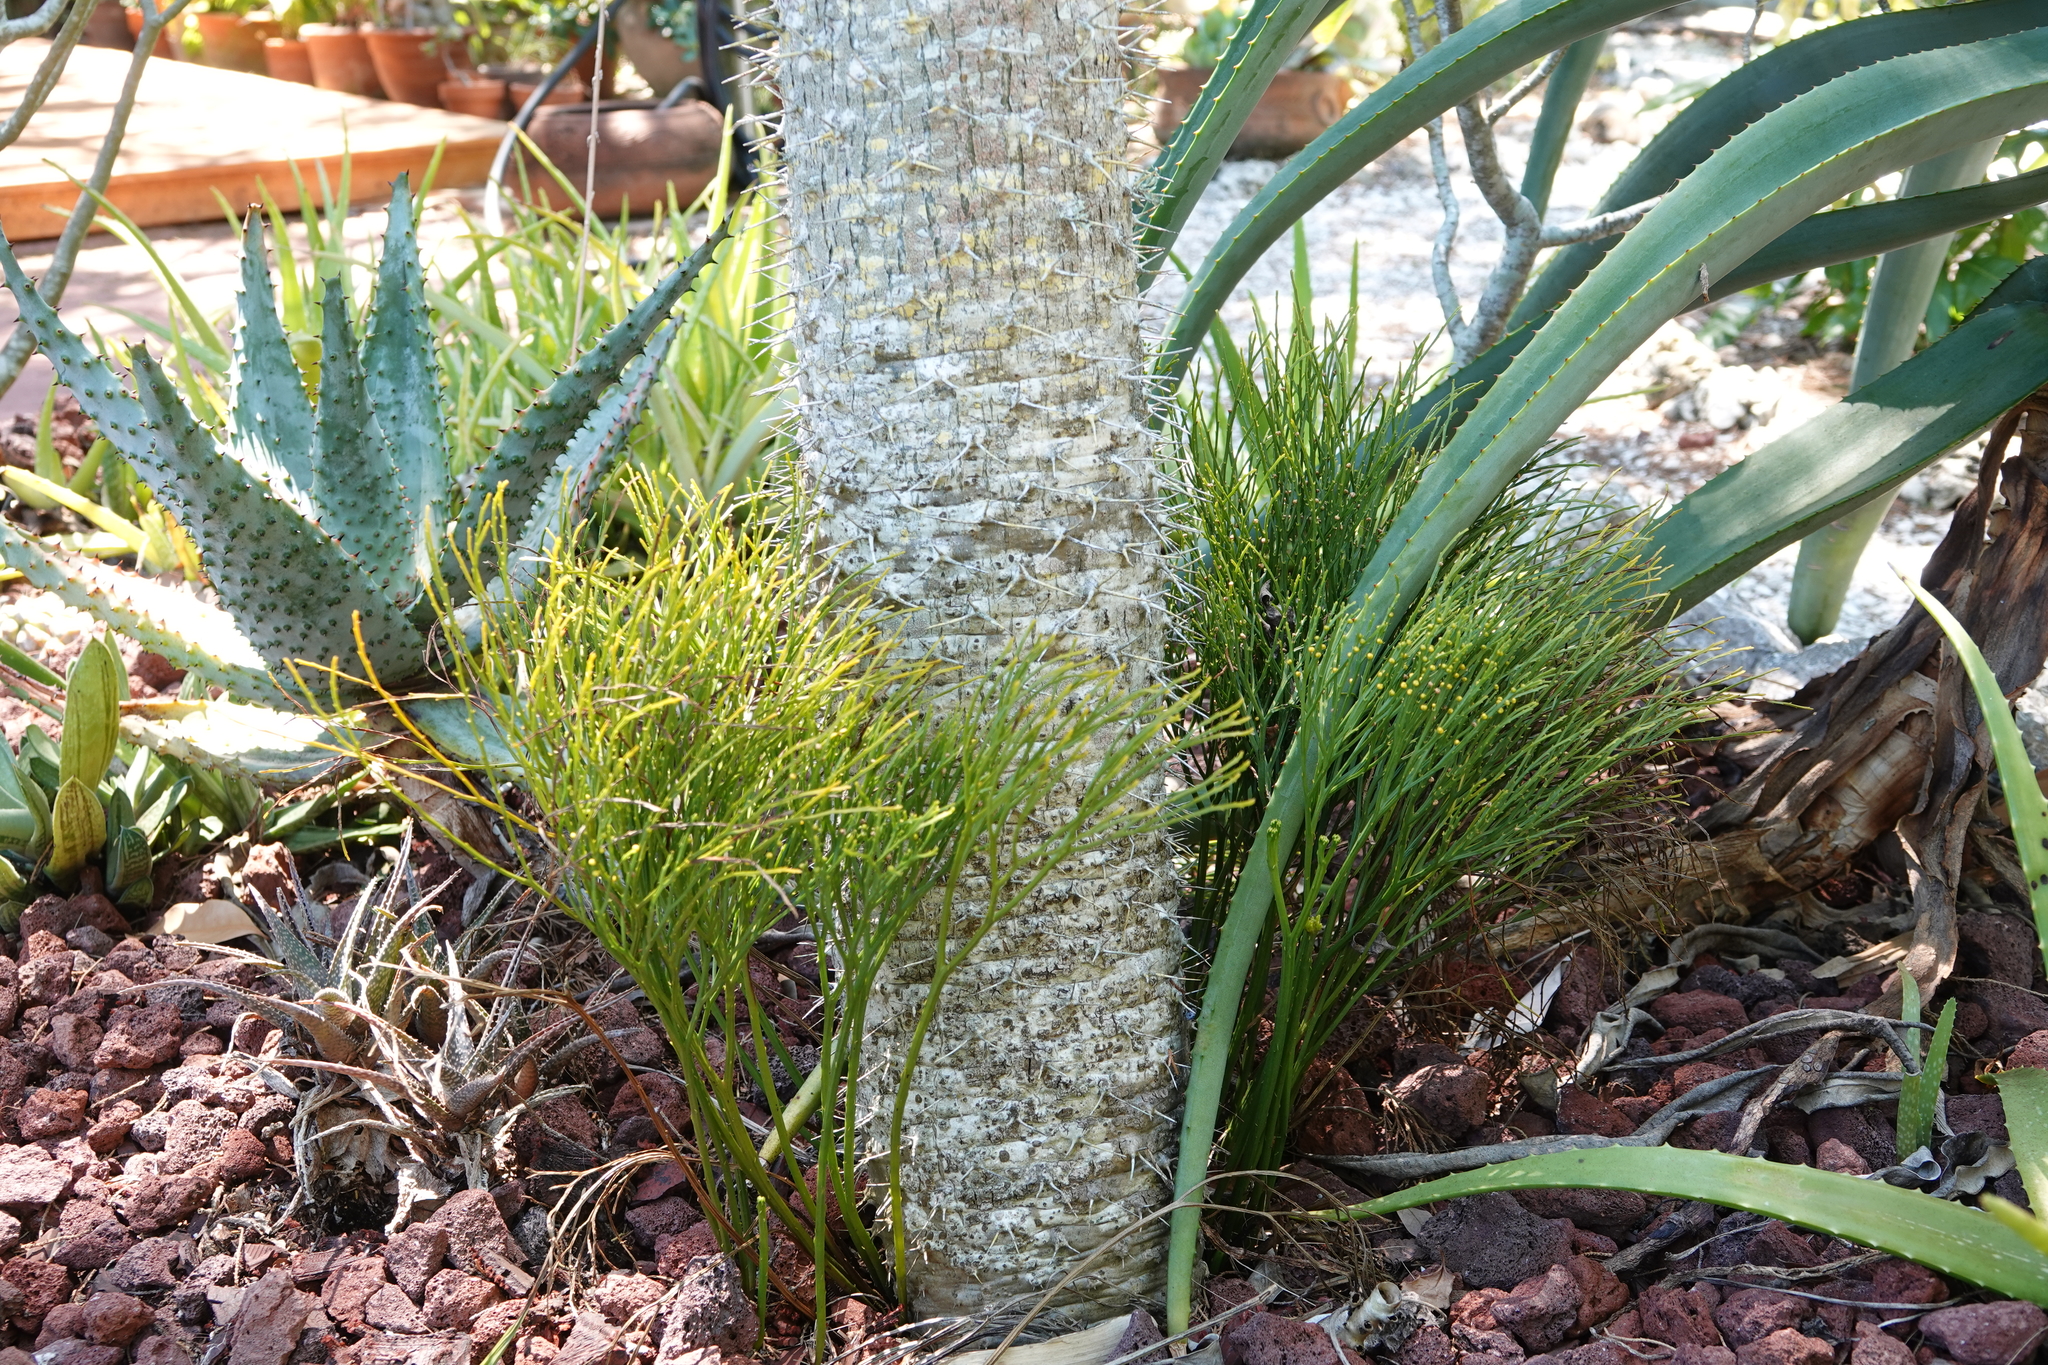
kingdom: Plantae
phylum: Tracheophyta
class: Polypodiopsida
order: Psilotales
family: Psilotaceae
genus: Psilotum
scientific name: Psilotum nudum
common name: Skeleton fork fern
